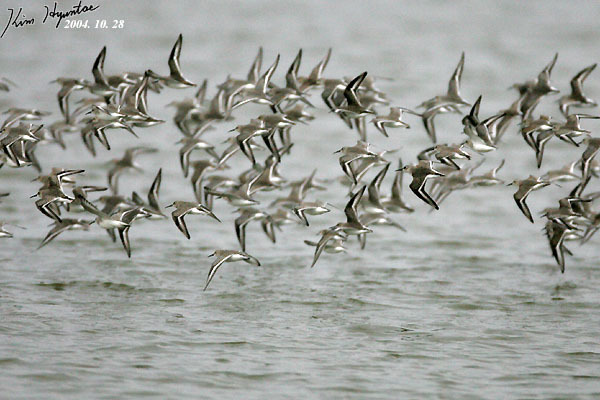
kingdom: Animalia
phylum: Chordata
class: Aves
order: Charadriiformes
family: Scolopacidae
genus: Calidris
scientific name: Calidris alpina
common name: Dunlin
